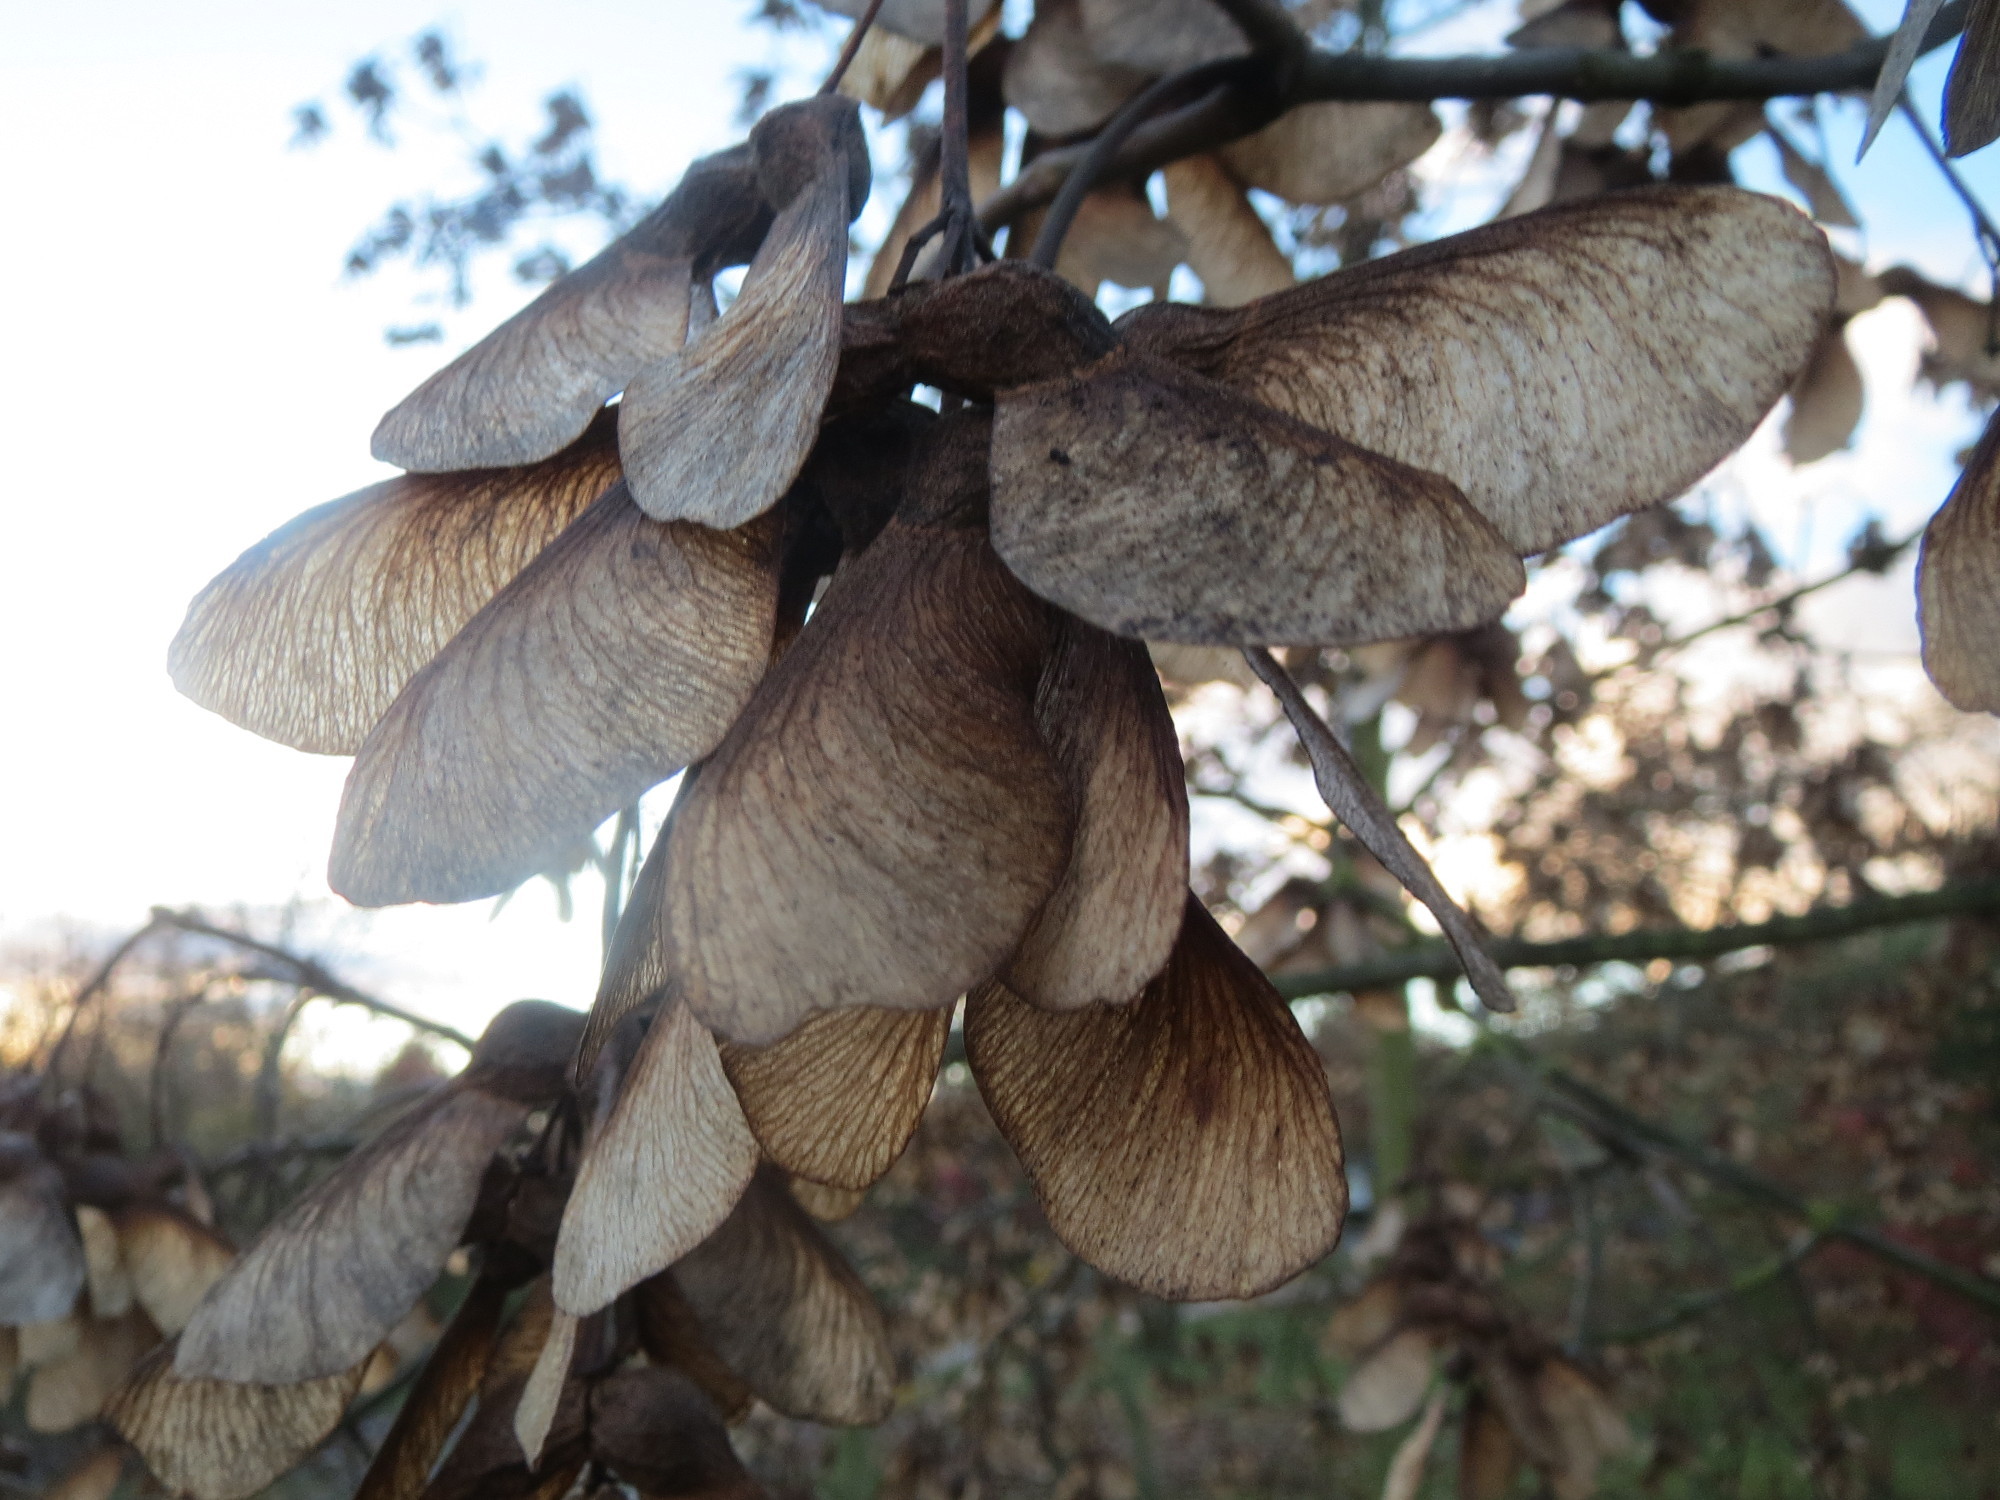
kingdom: Plantae
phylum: Tracheophyta
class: Magnoliopsida
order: Sapindales
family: Sapindaceae
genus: Acer
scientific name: Acer pseudoplatanus
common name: Sycamore
